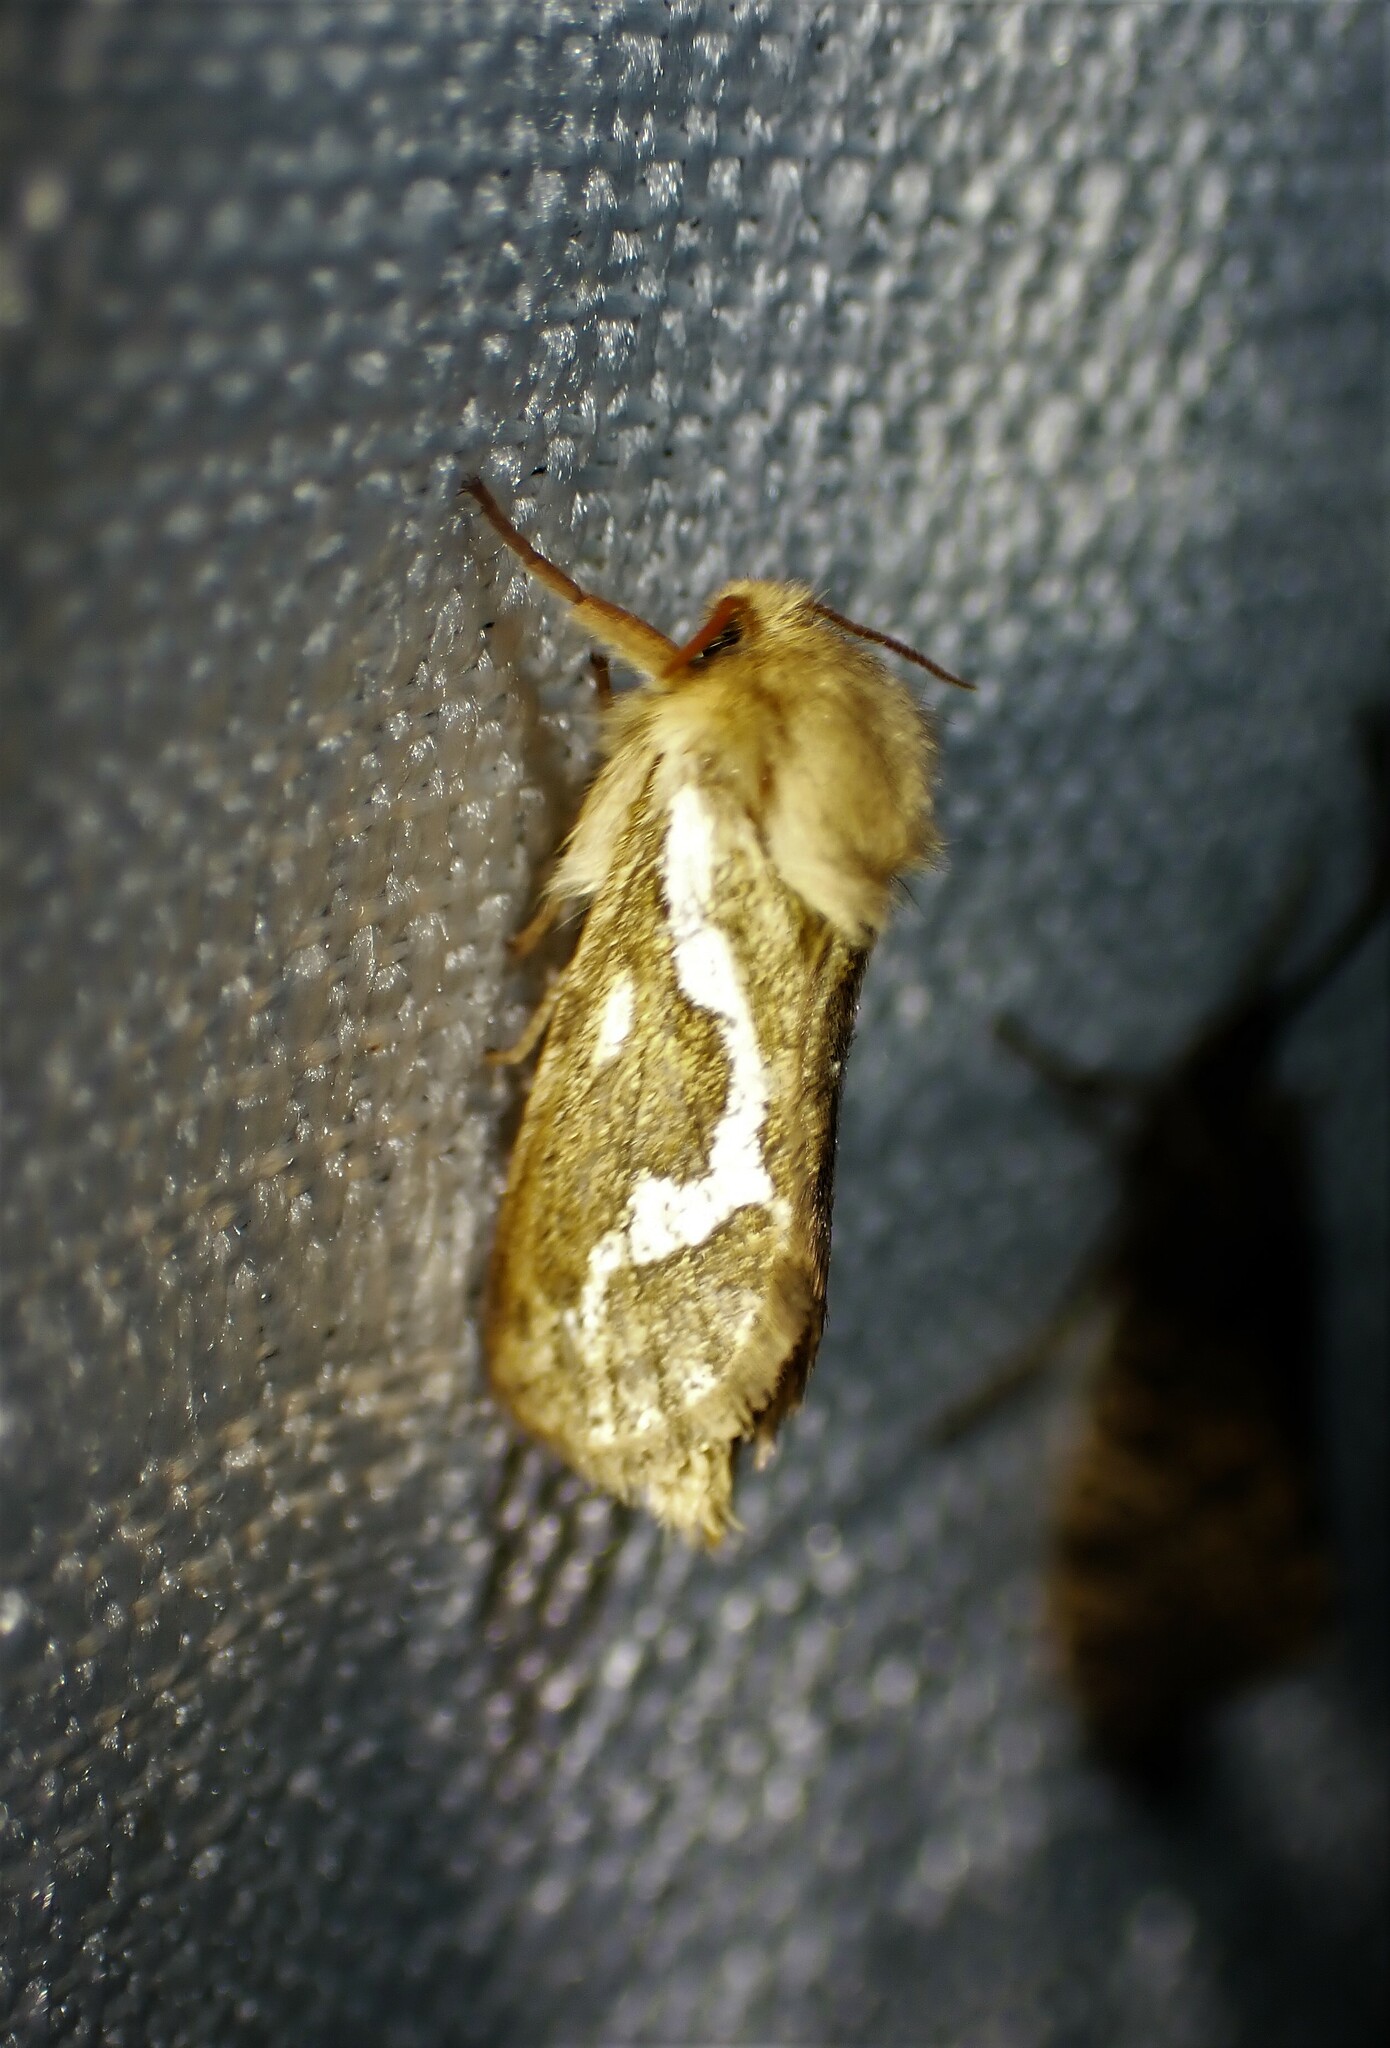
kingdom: Animalia
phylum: Arthropoda
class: Insecta
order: Lepidoptera
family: Hepialidae
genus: Korscheltellus
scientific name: Korscheltellus lupulina
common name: Common swift
